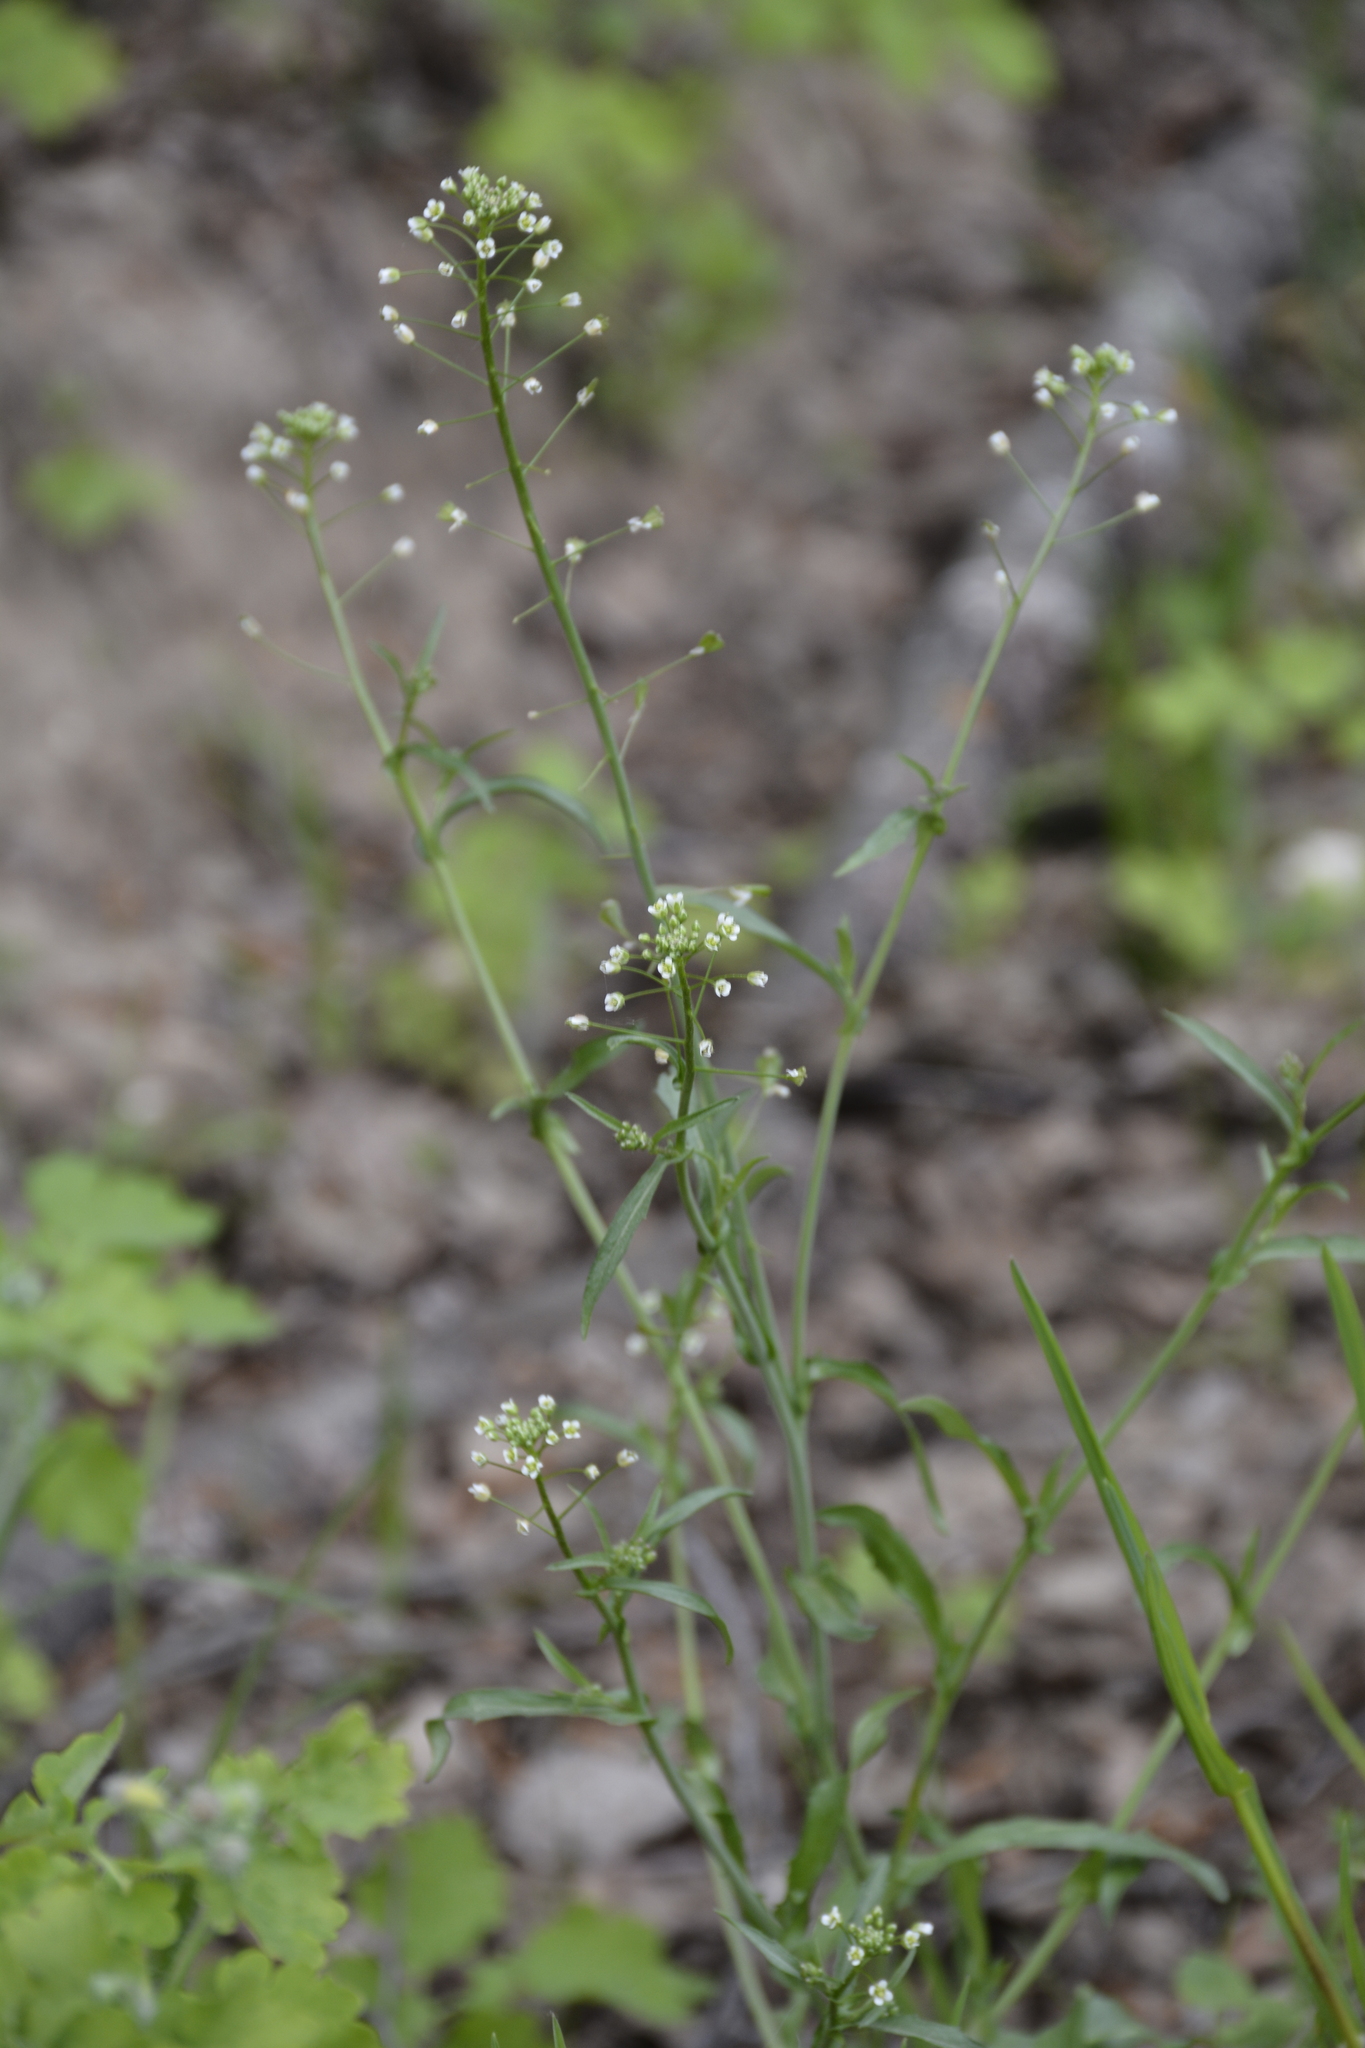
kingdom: Plantae
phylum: Tracheophyta
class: Magnoliopsida
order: Brassicales
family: Brassicaceae
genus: Capsella
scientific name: Capsella bursa-pastoris
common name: Shepherd's purse
